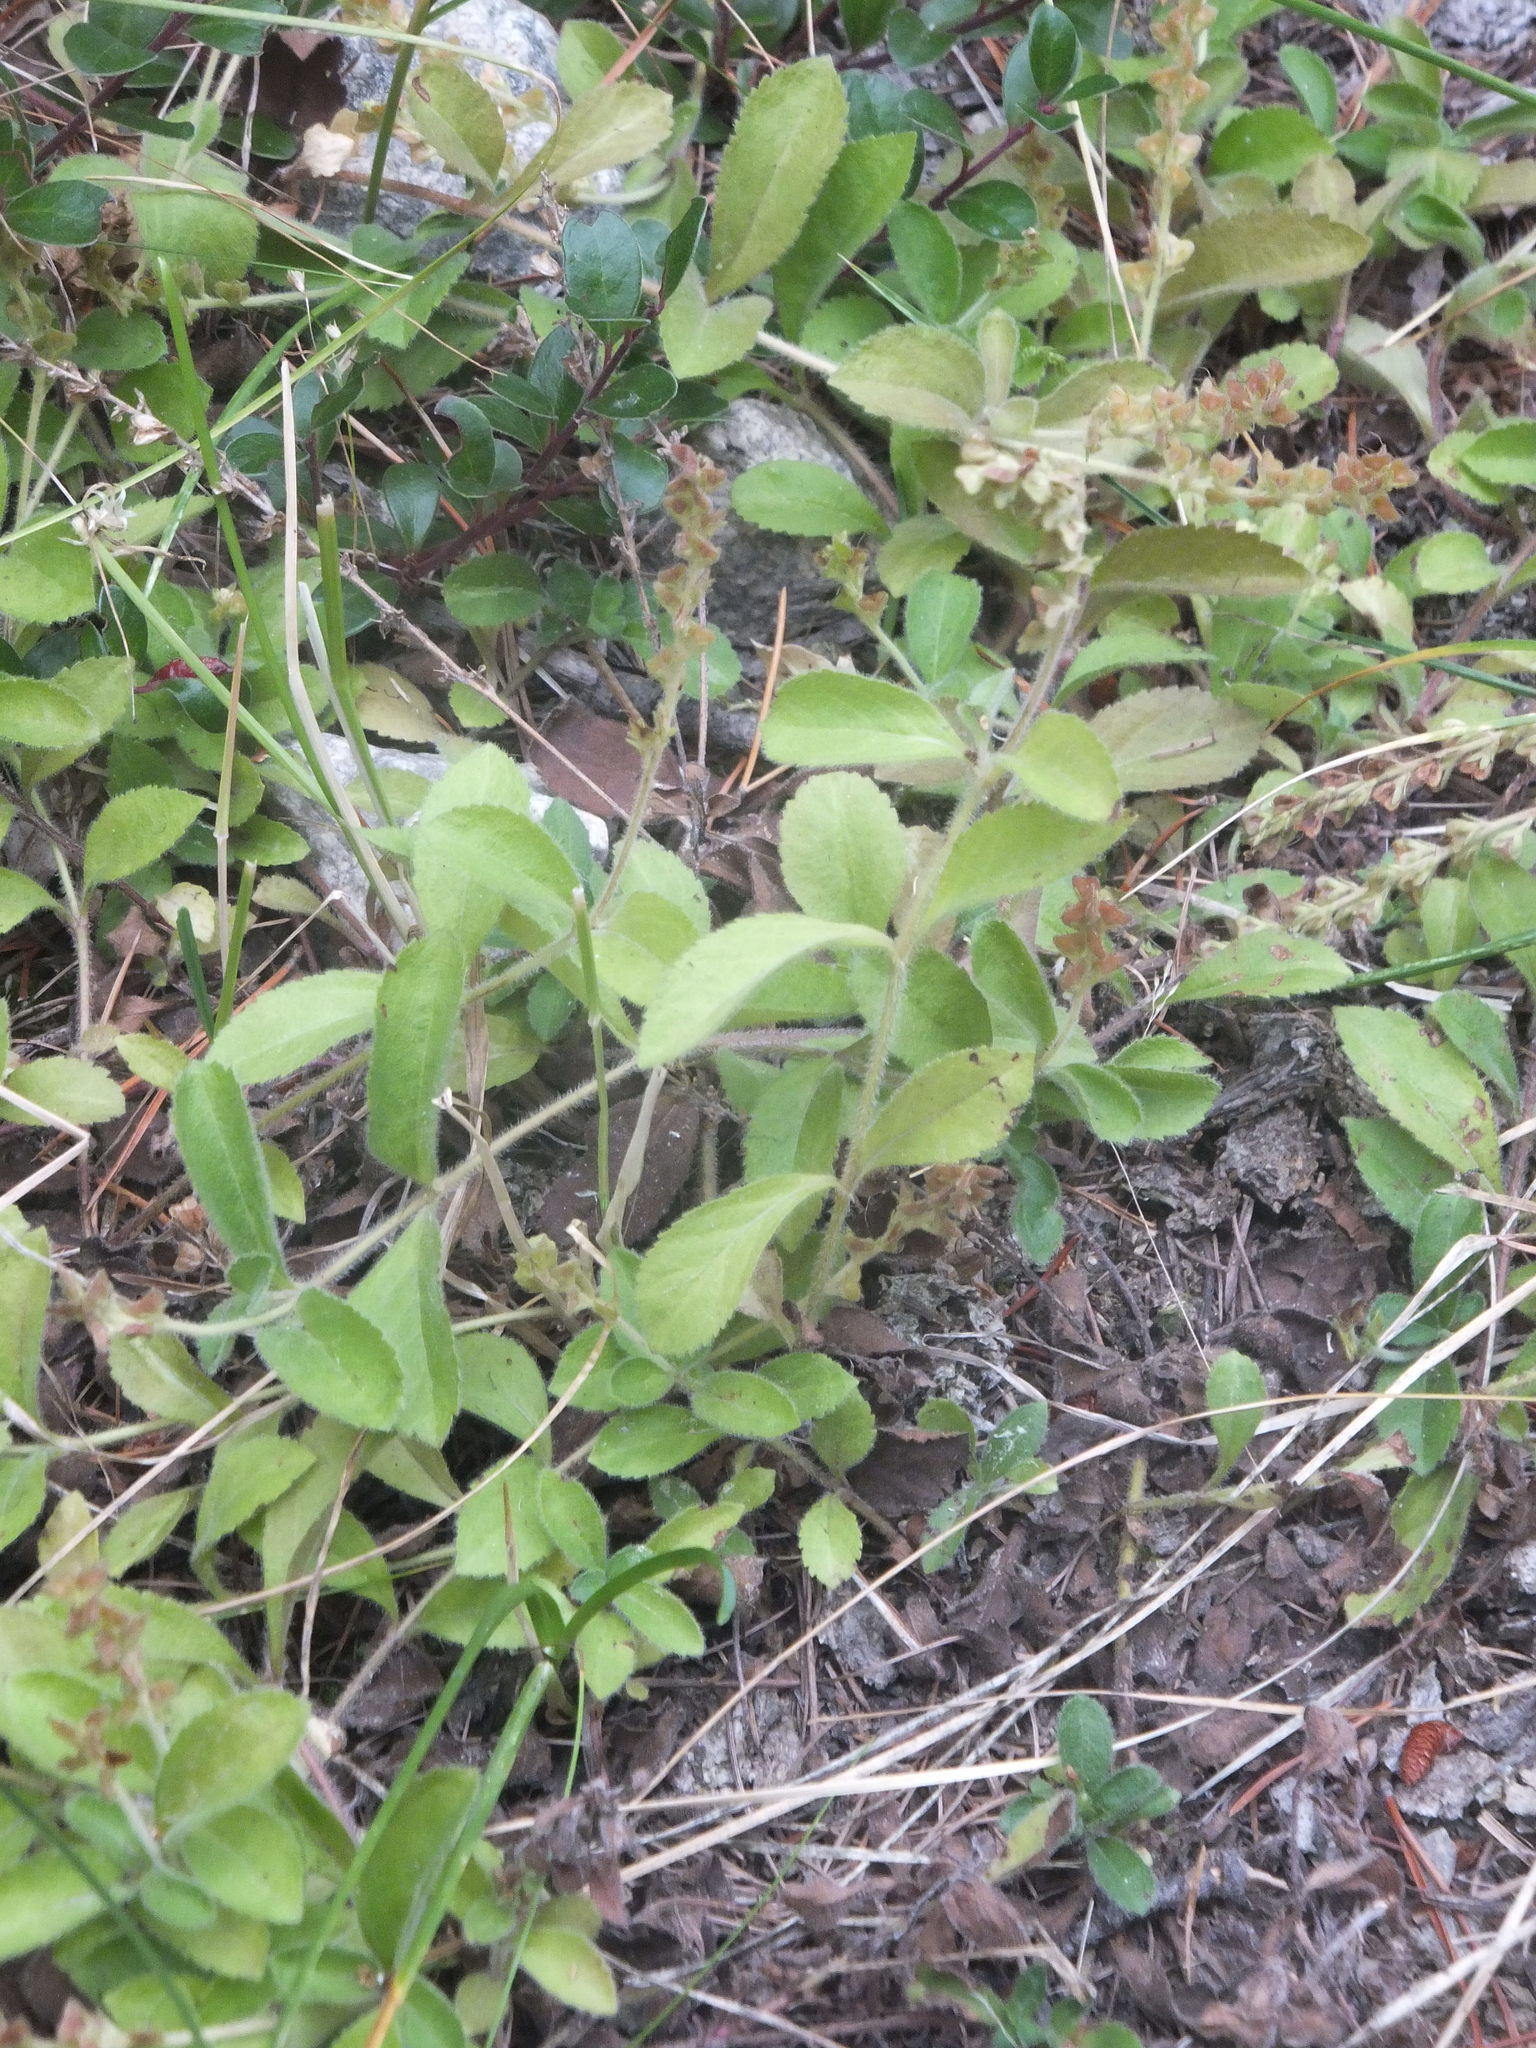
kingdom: Plantae
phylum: Tracheophyta
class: Magnoliopsida
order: Lamiales
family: Plantaginaceae
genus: Veronica
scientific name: Veronica officinalis
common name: Common speedwell
